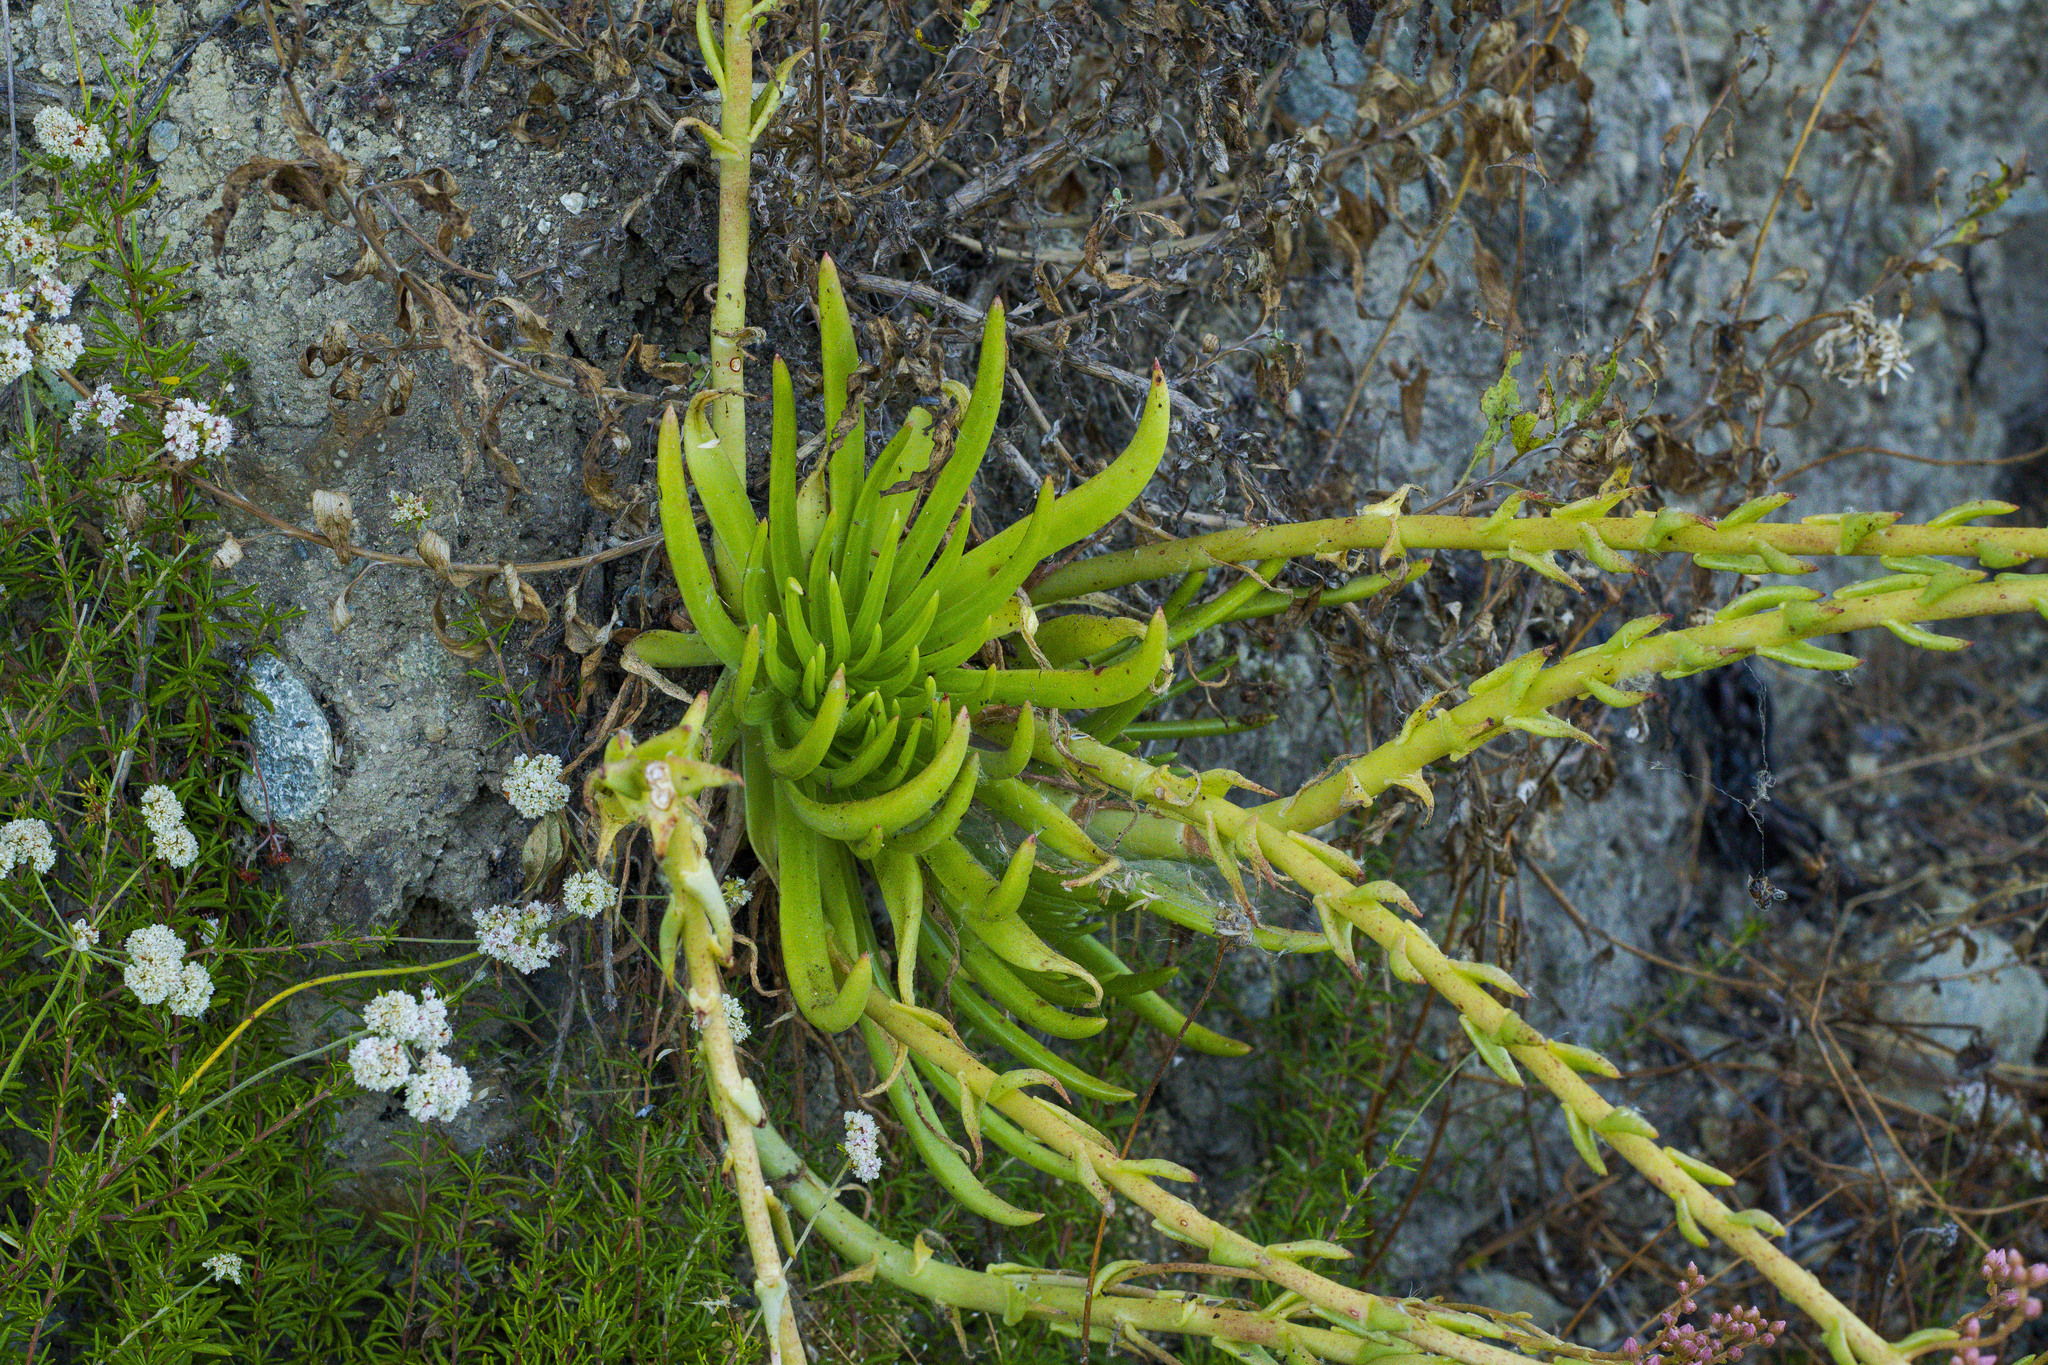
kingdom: Plantae
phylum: Tracheophyta
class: Magnoliopsida
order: Saxifragales
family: Crassulaceae
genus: Dudleya
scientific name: Dudleya viscida
